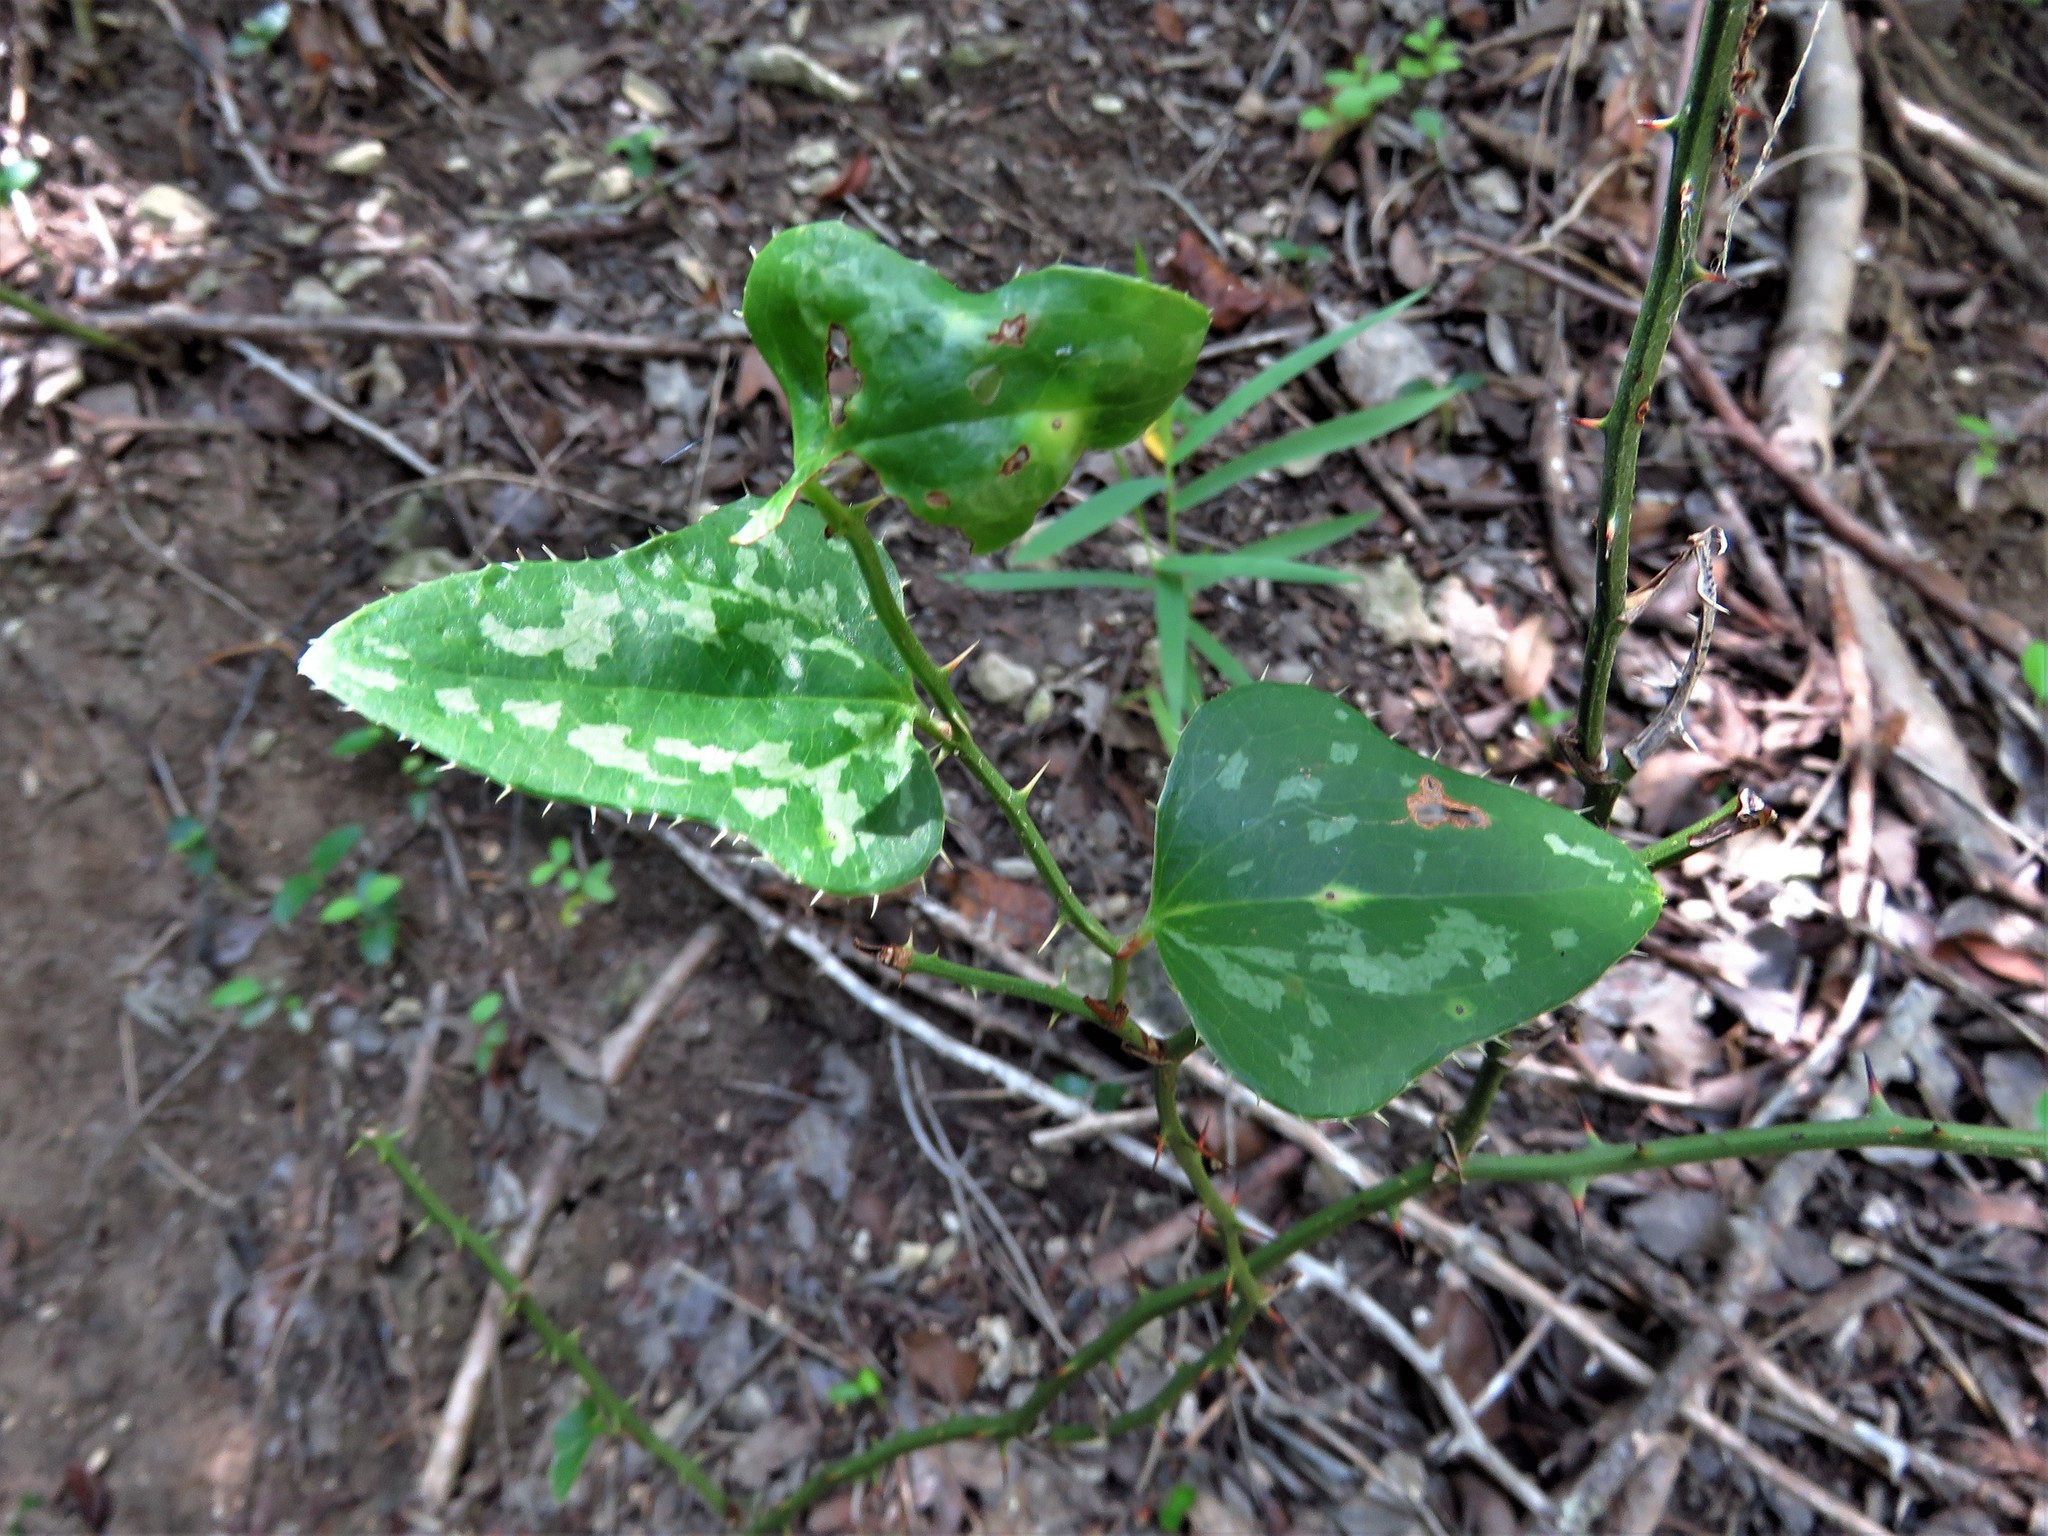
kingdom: Plantae
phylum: Tracheophyta
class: Liliopsida
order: Liliales
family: Smilacaceae
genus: Smilax
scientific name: Smilax bona-nox
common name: Catbrier
